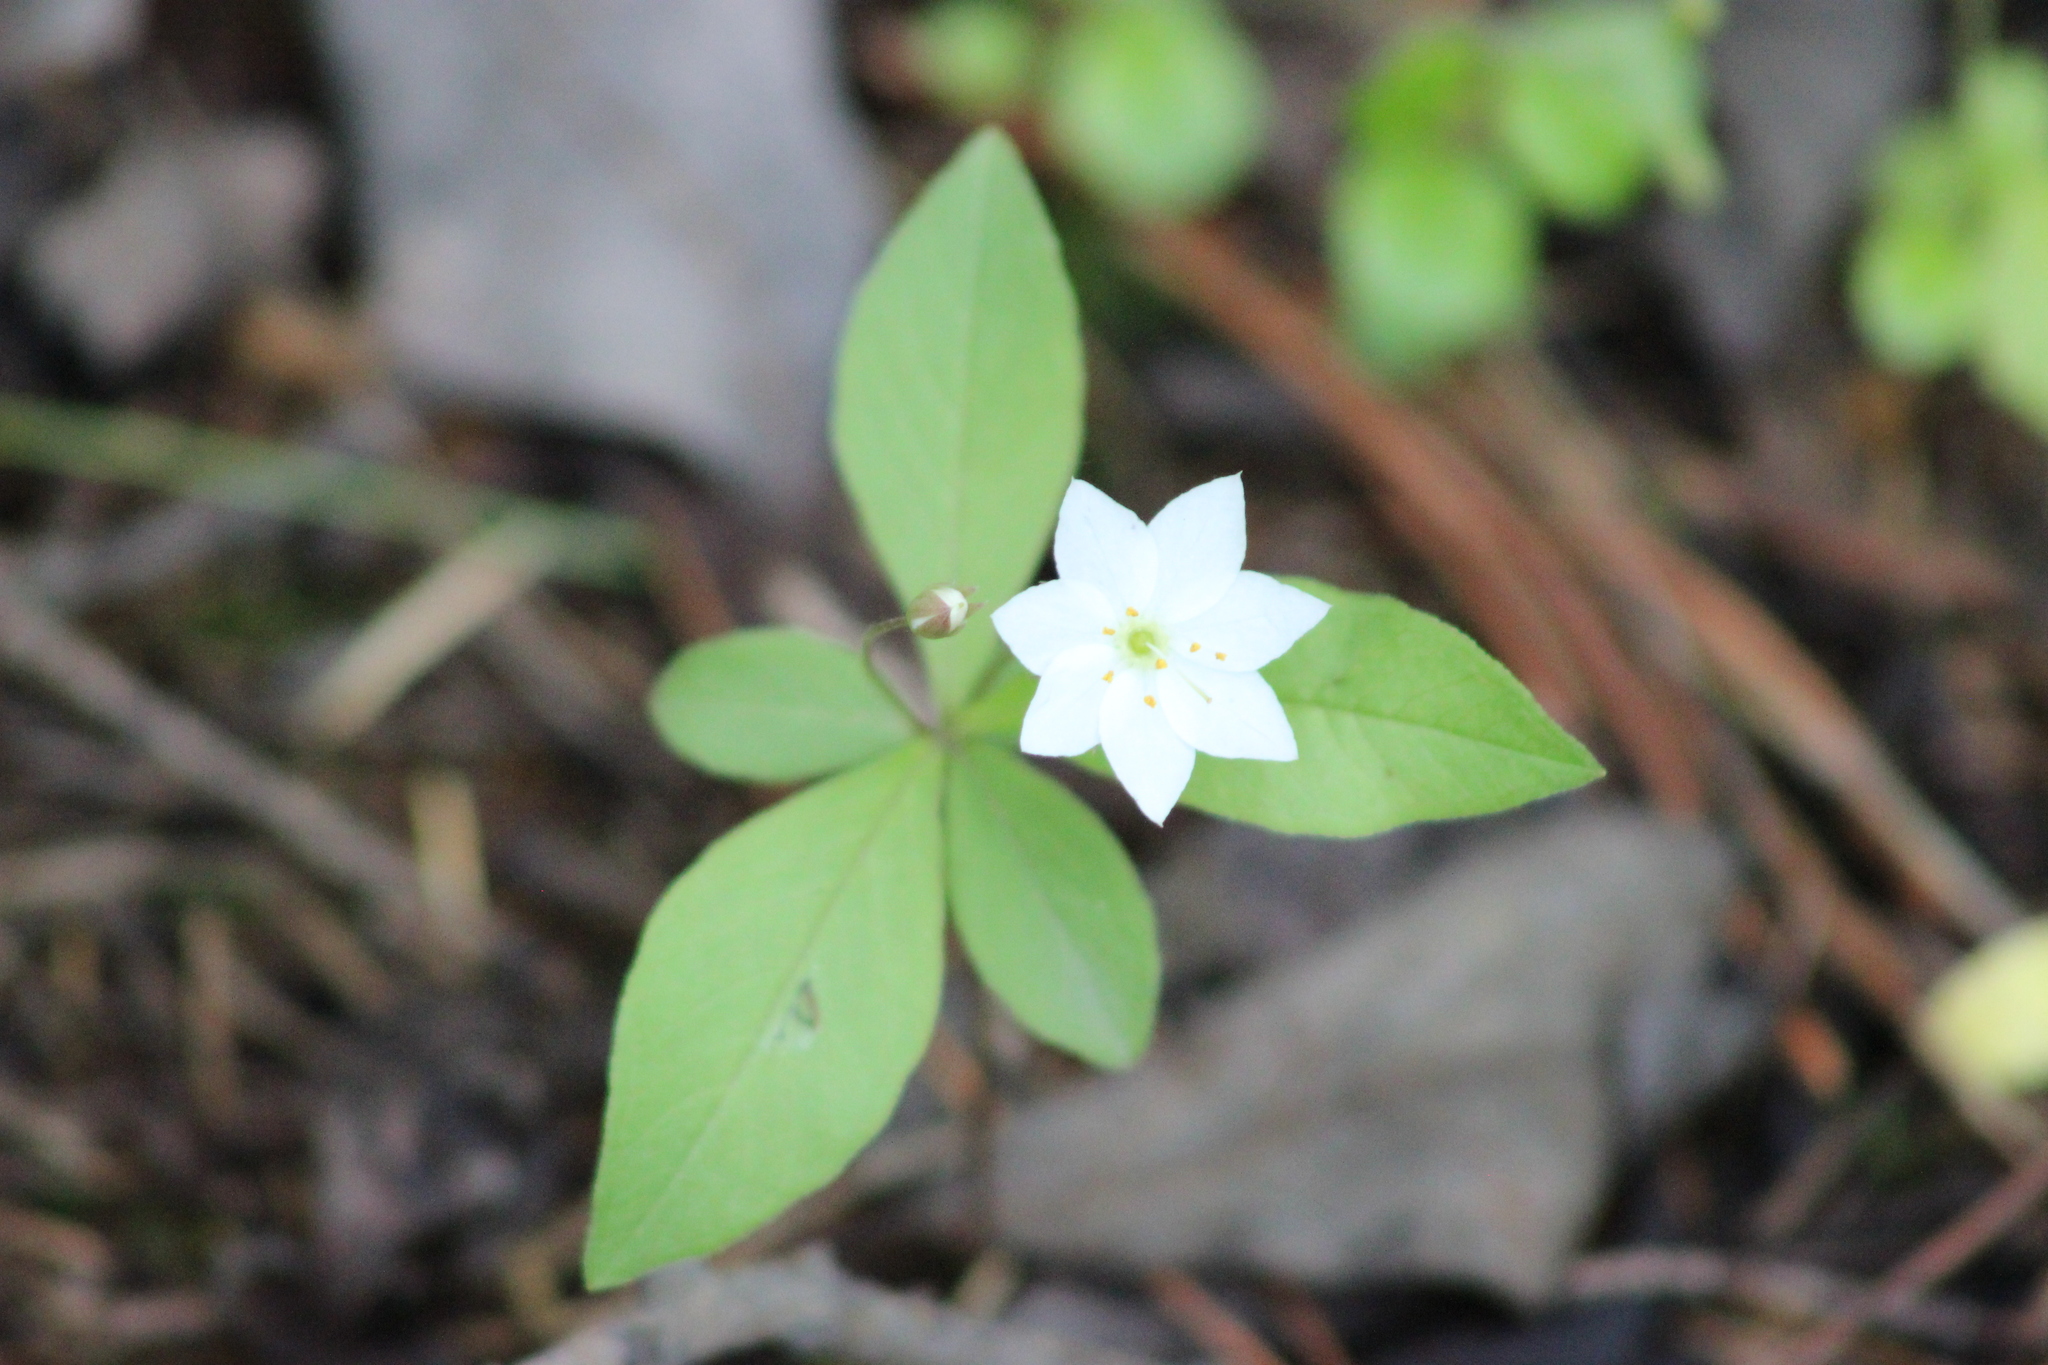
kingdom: Plantae
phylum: Tracheophyta
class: Magnoliopsida
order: Ericales
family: Primulaceae
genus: Lysimachia
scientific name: Lysimachia europaea
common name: Arctic starflower
